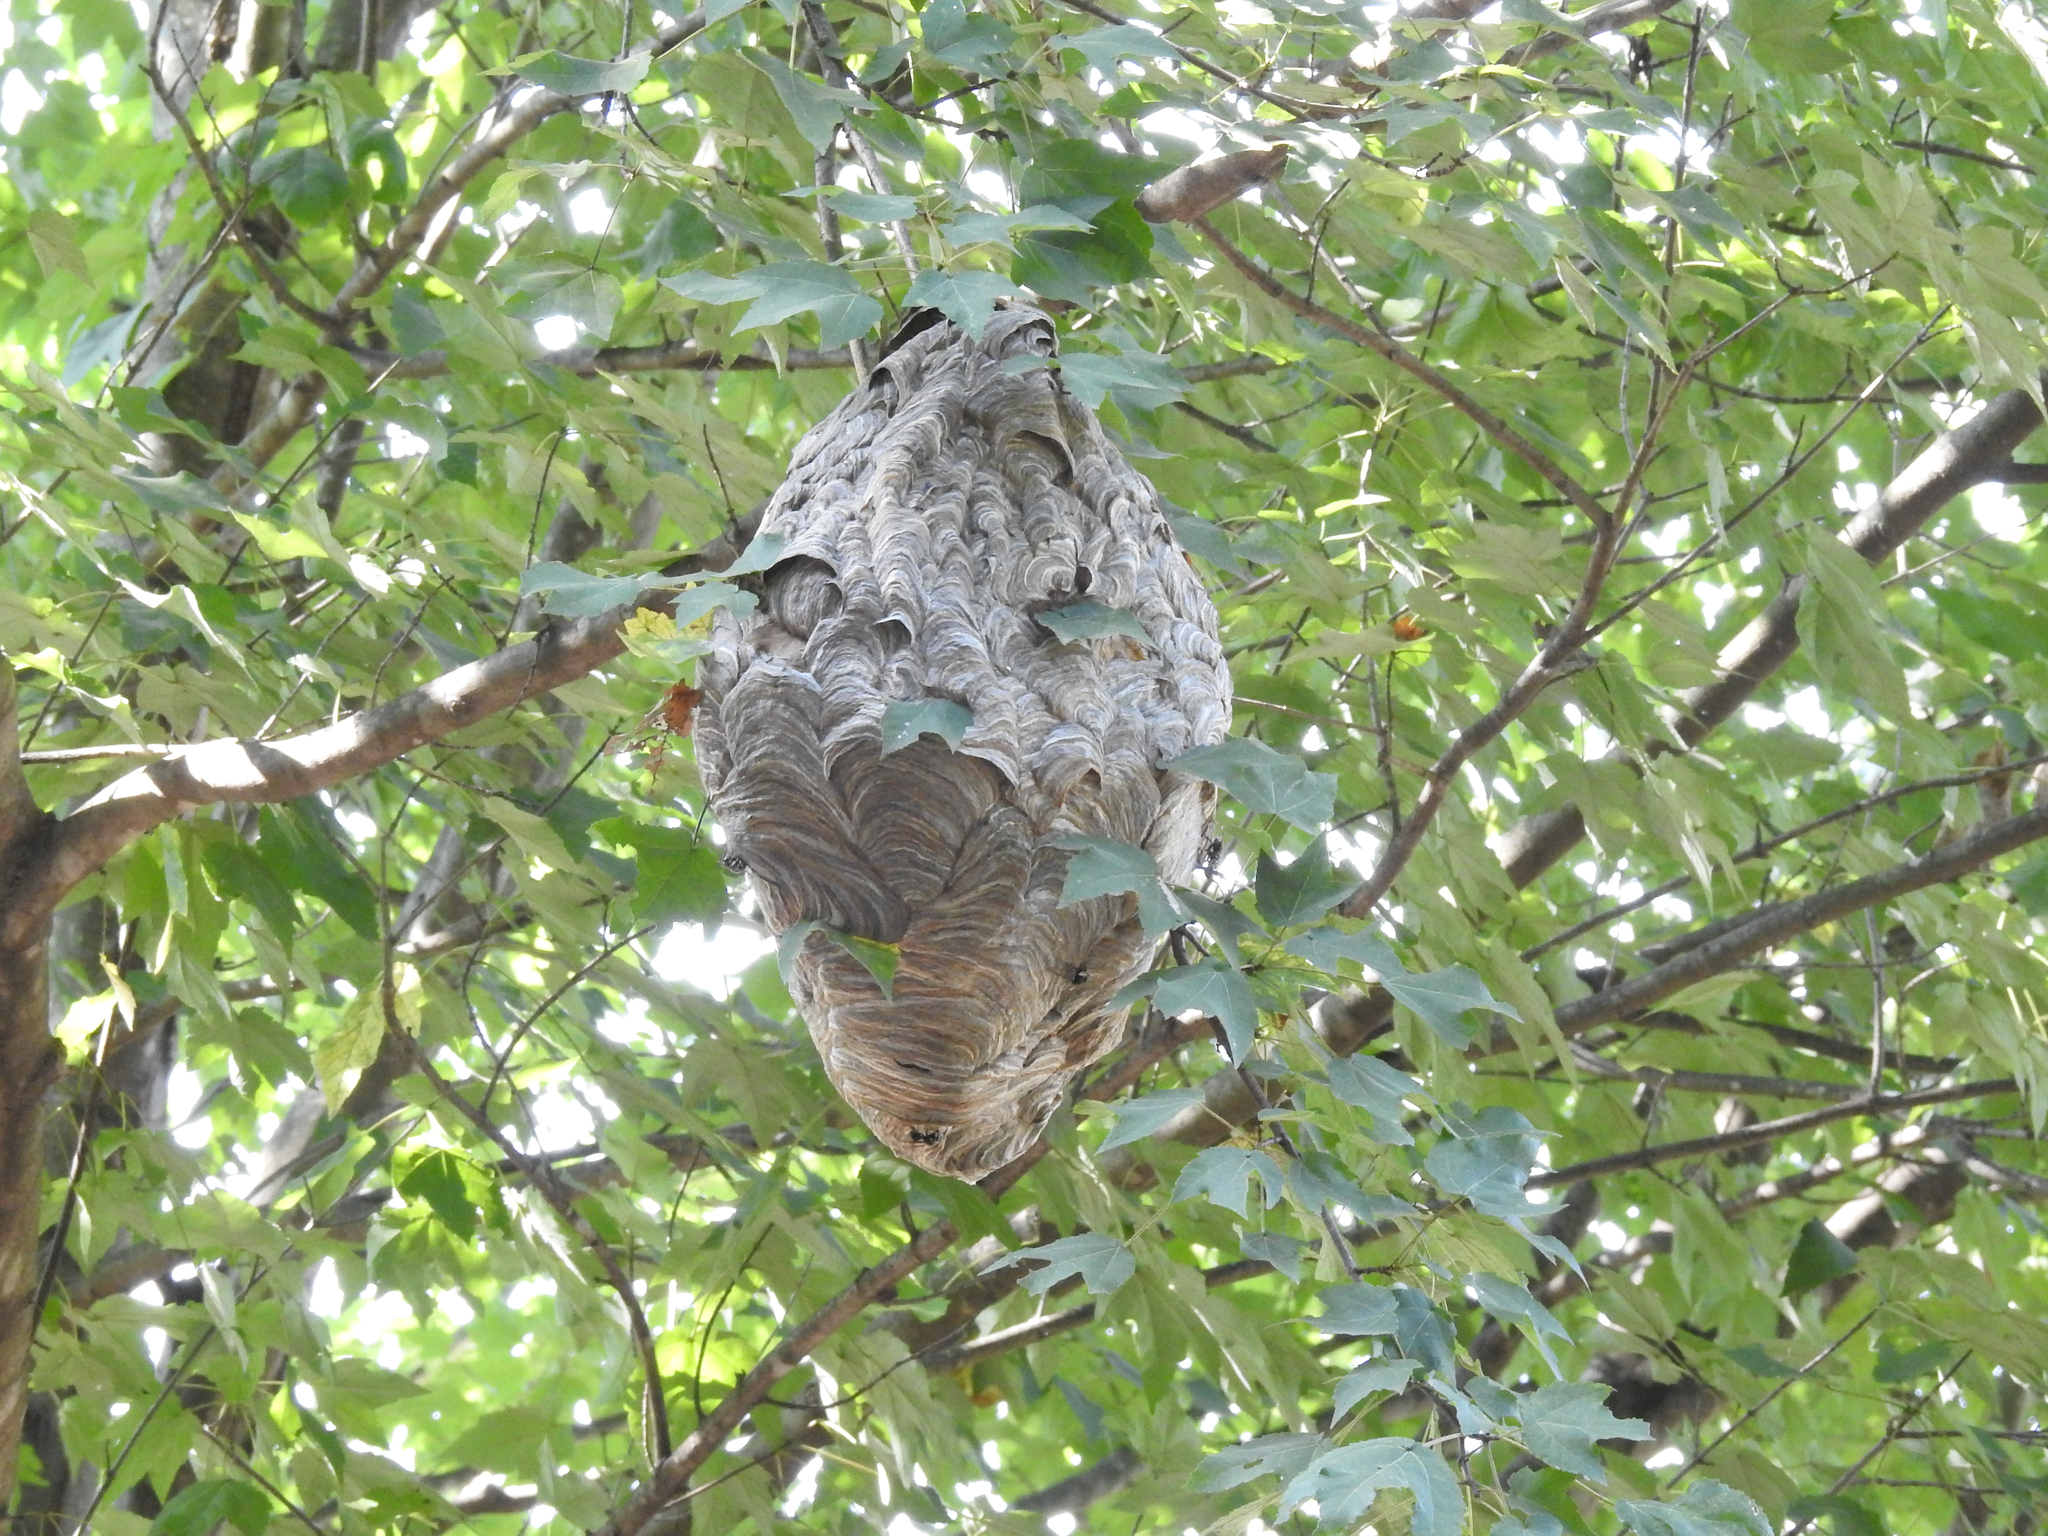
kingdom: Animalia
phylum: Arthropoda
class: Insecta
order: Hymenoptera
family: Vespidae
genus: Dolichovespula
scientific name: Dolichovespula maculata
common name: Bald-faced hornet
